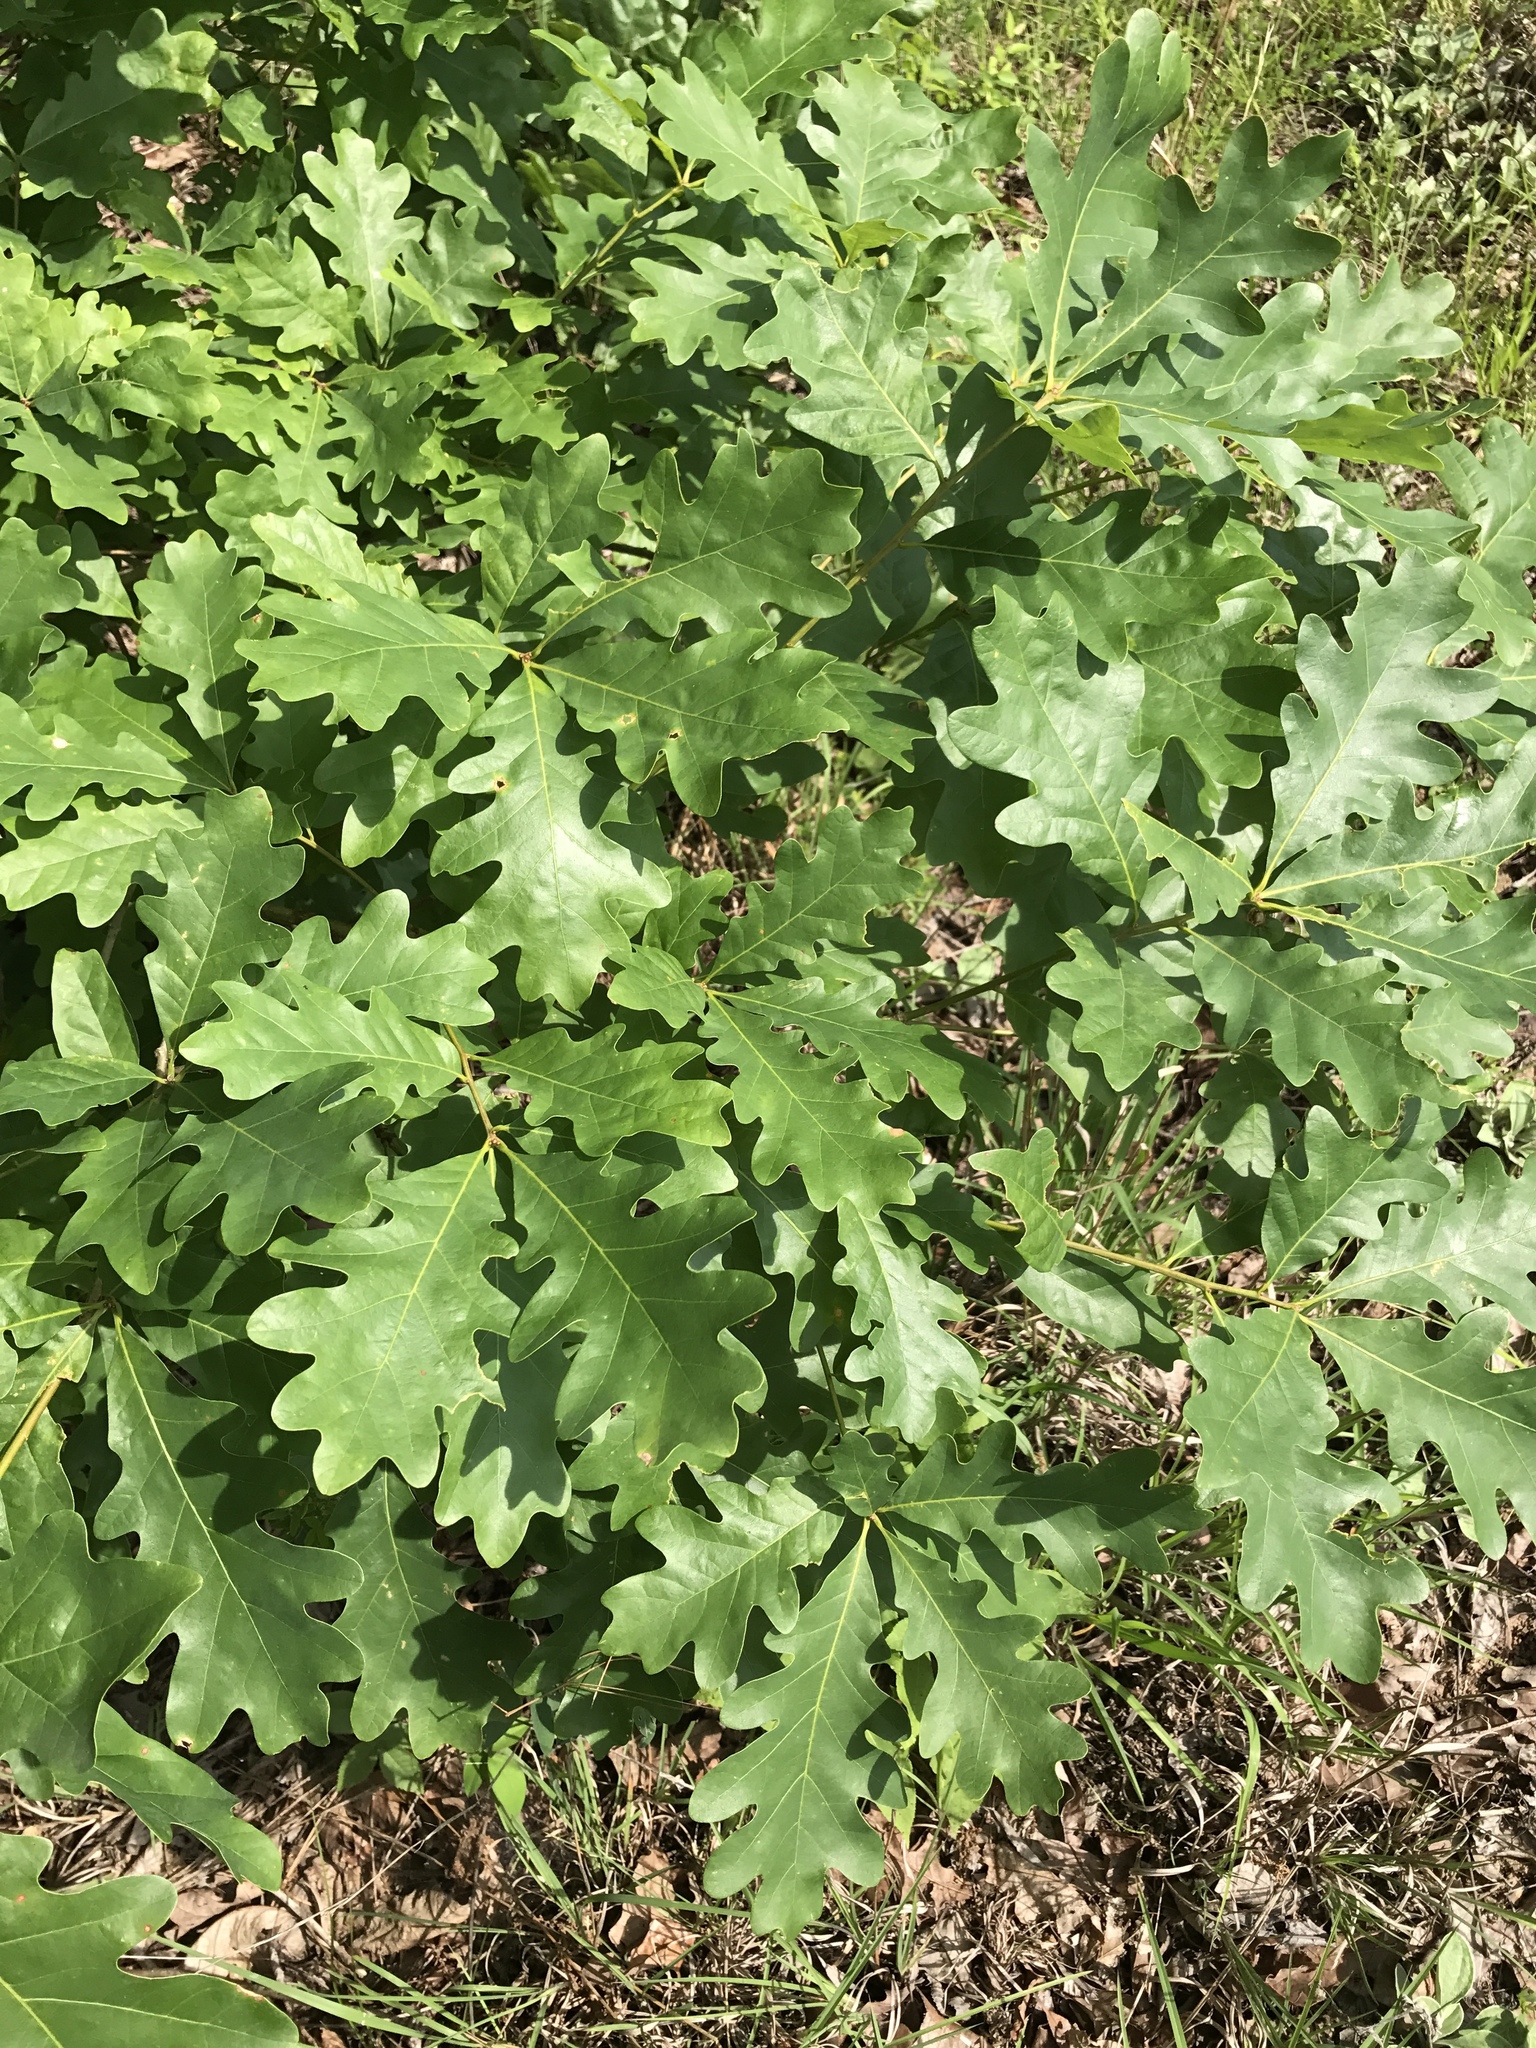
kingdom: Plantae
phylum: Tracheophyta
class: Magnoliopsida
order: Fagales
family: Fagaceae
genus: Quercus
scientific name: Quercus alba
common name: White oak
